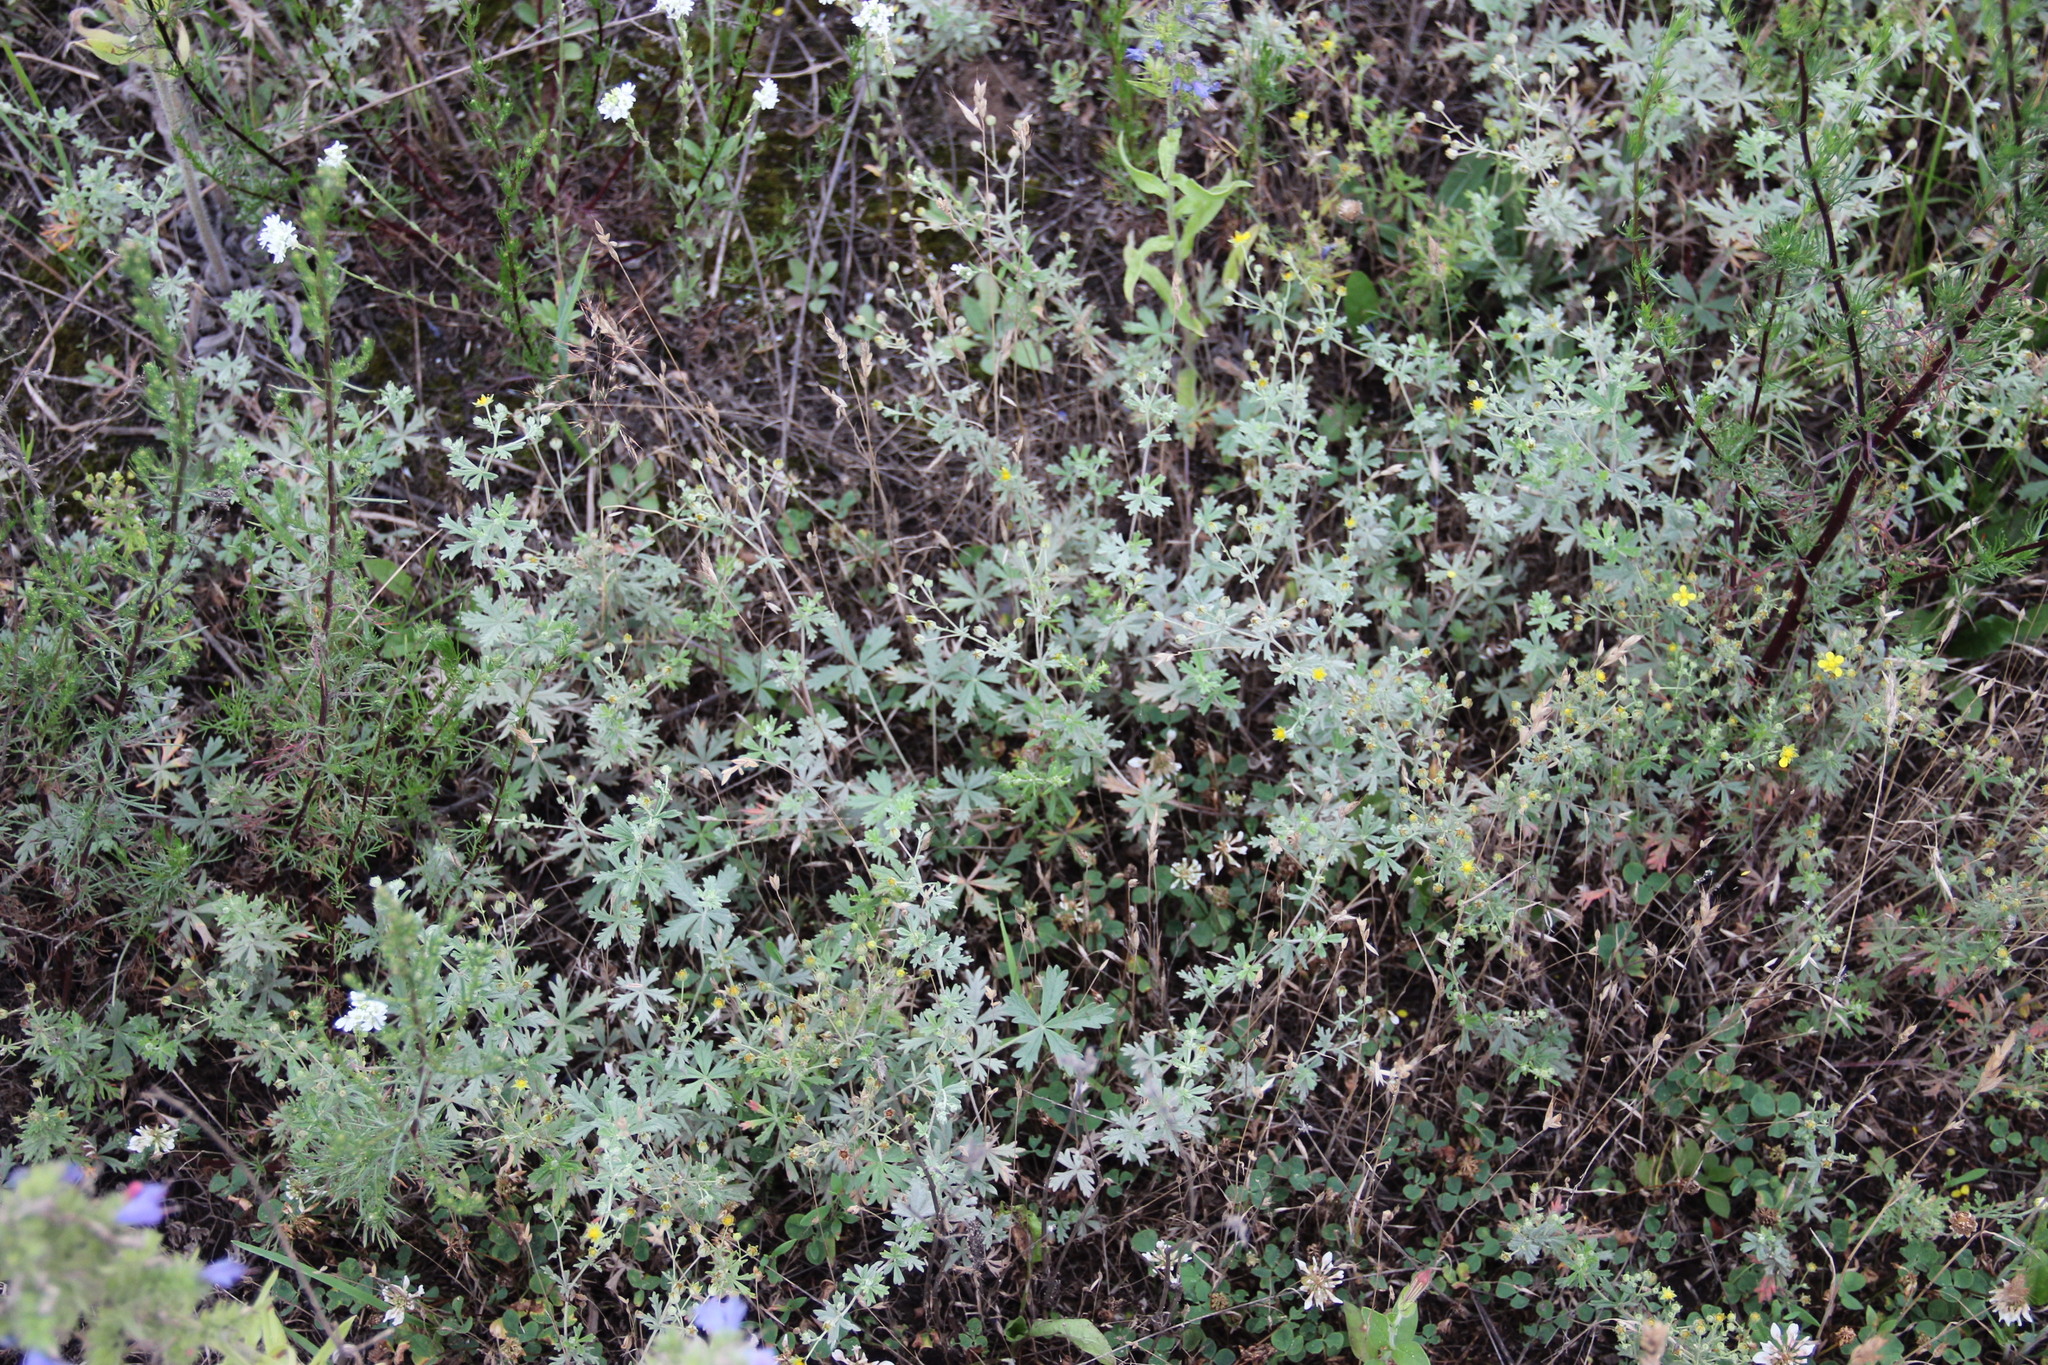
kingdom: Plantae
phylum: Tracheophyta
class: Magnoliopsida
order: Rosales
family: Rosaceae
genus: Potentilla
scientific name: Potentilla argentea
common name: Hoary cinquefoil
